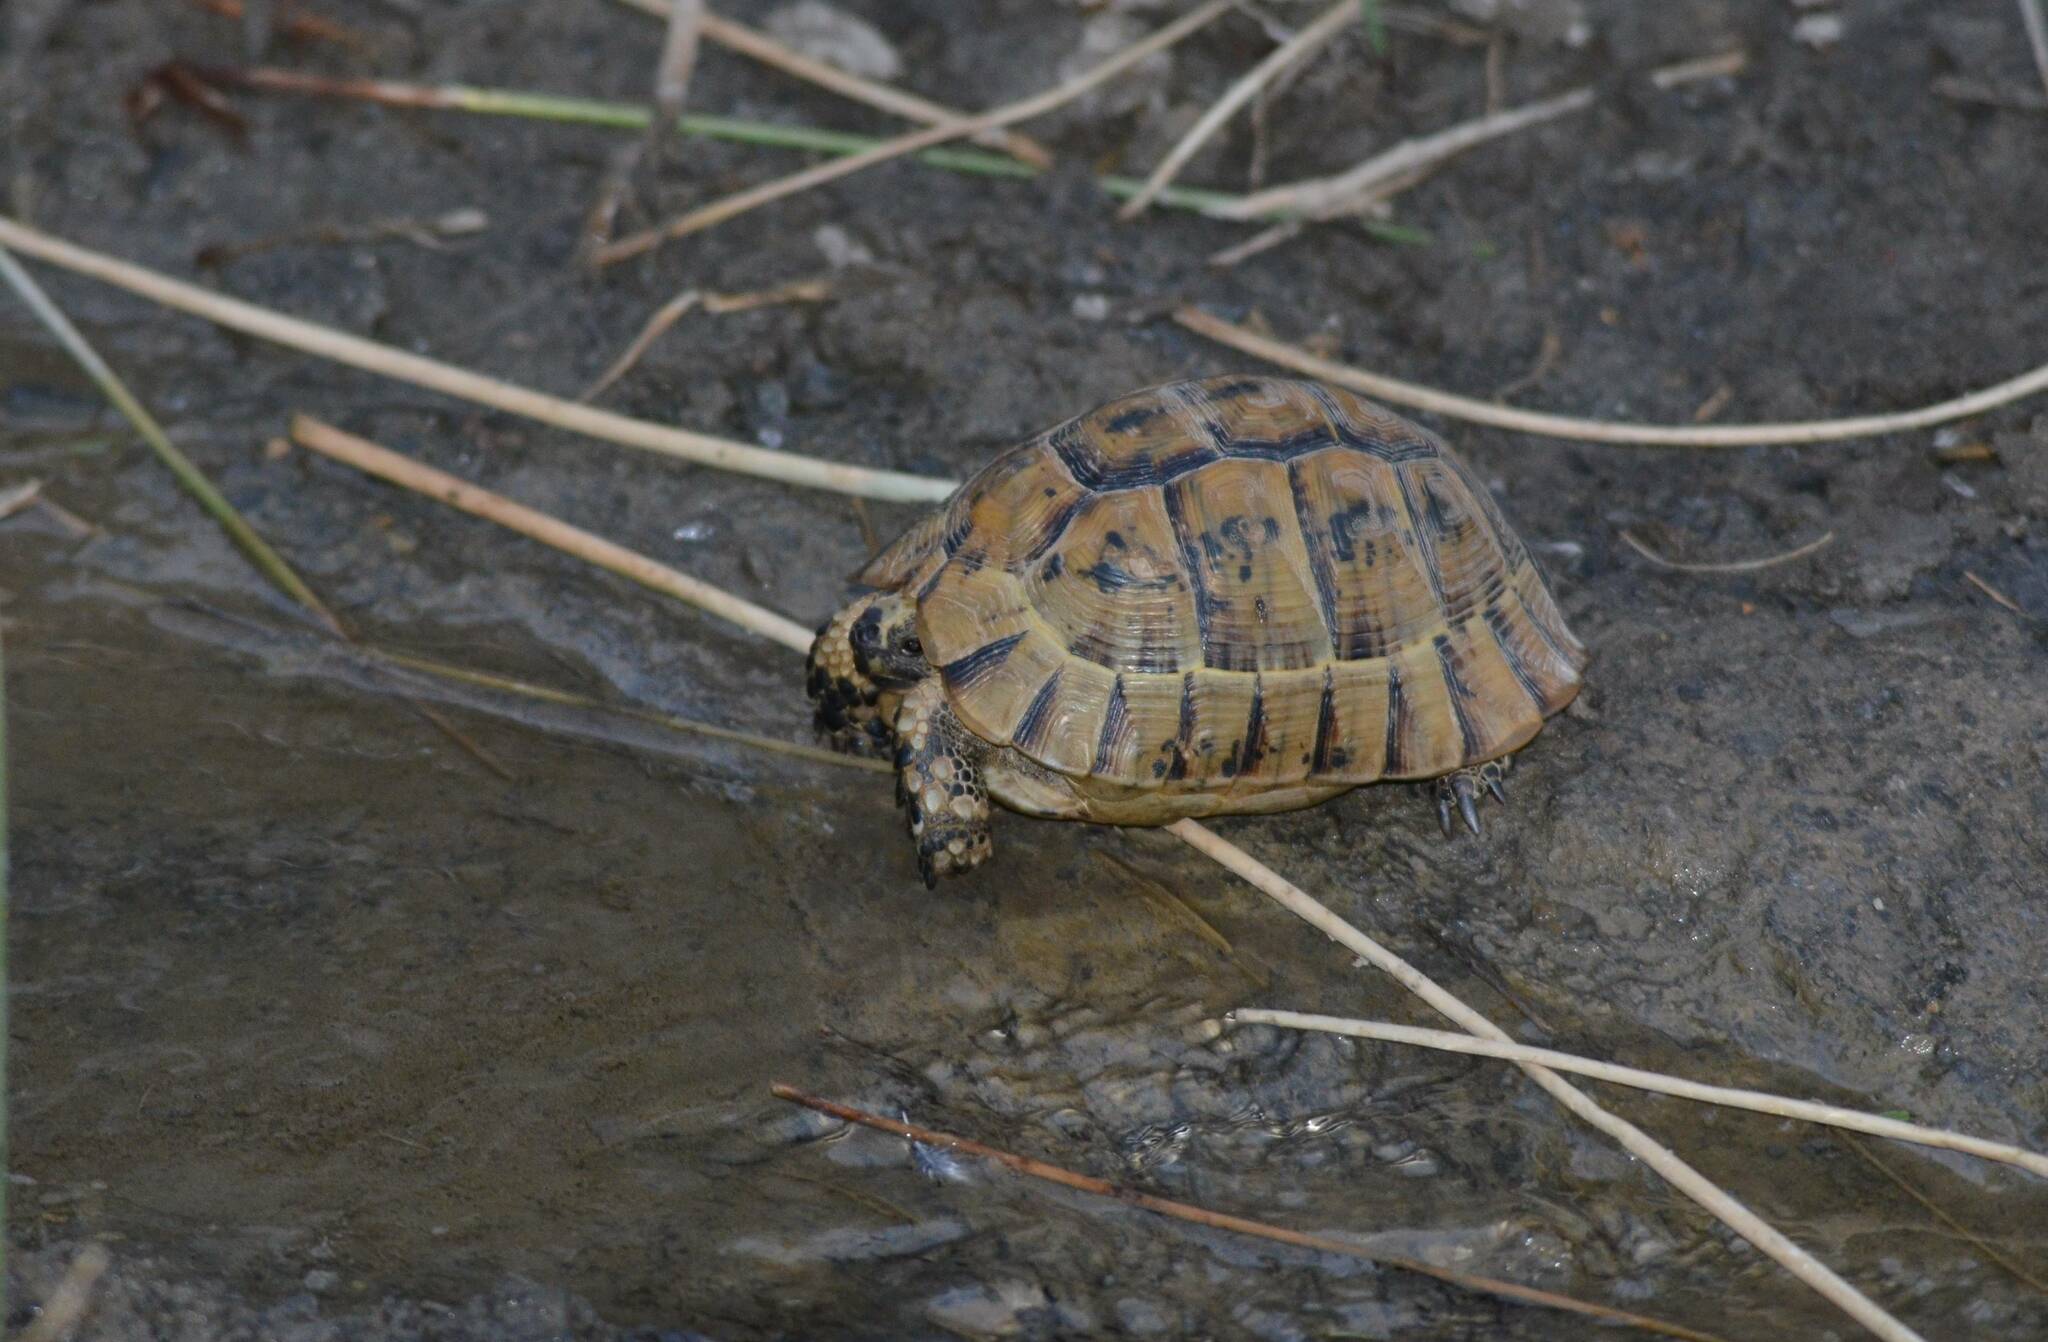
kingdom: Animalia
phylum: Chordata
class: Testudines
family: Testudinidae
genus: Testudo
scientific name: Testudo graeca
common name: Common tortoise
